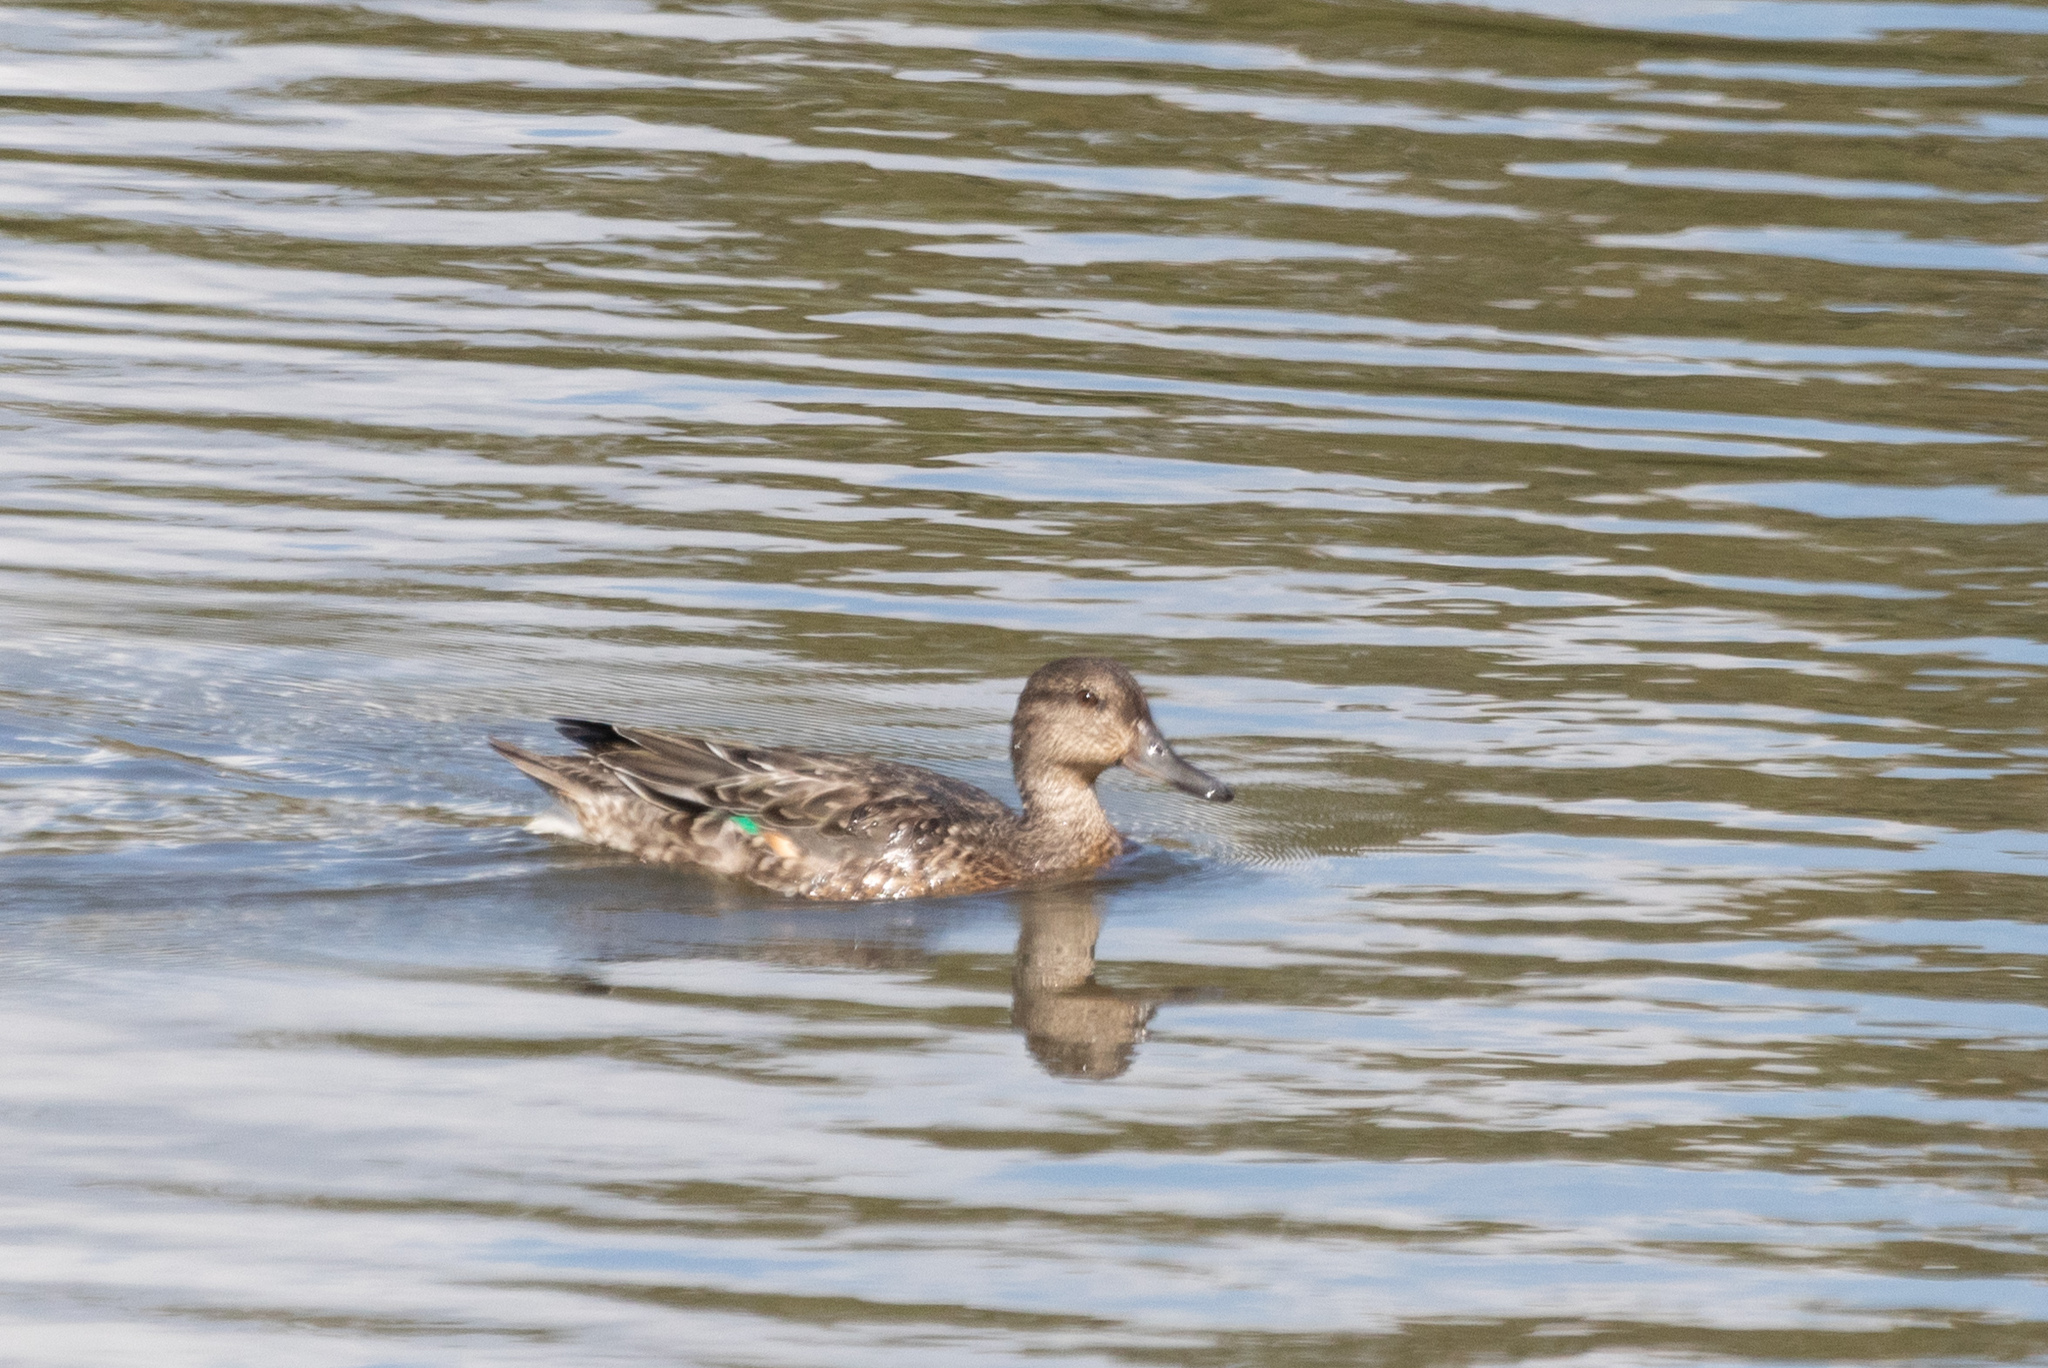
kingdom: Animalia
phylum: Chordata
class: Aves
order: Anseriformes
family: Anatidae
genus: Anas
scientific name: Anas crecca
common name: Eurasian teal
